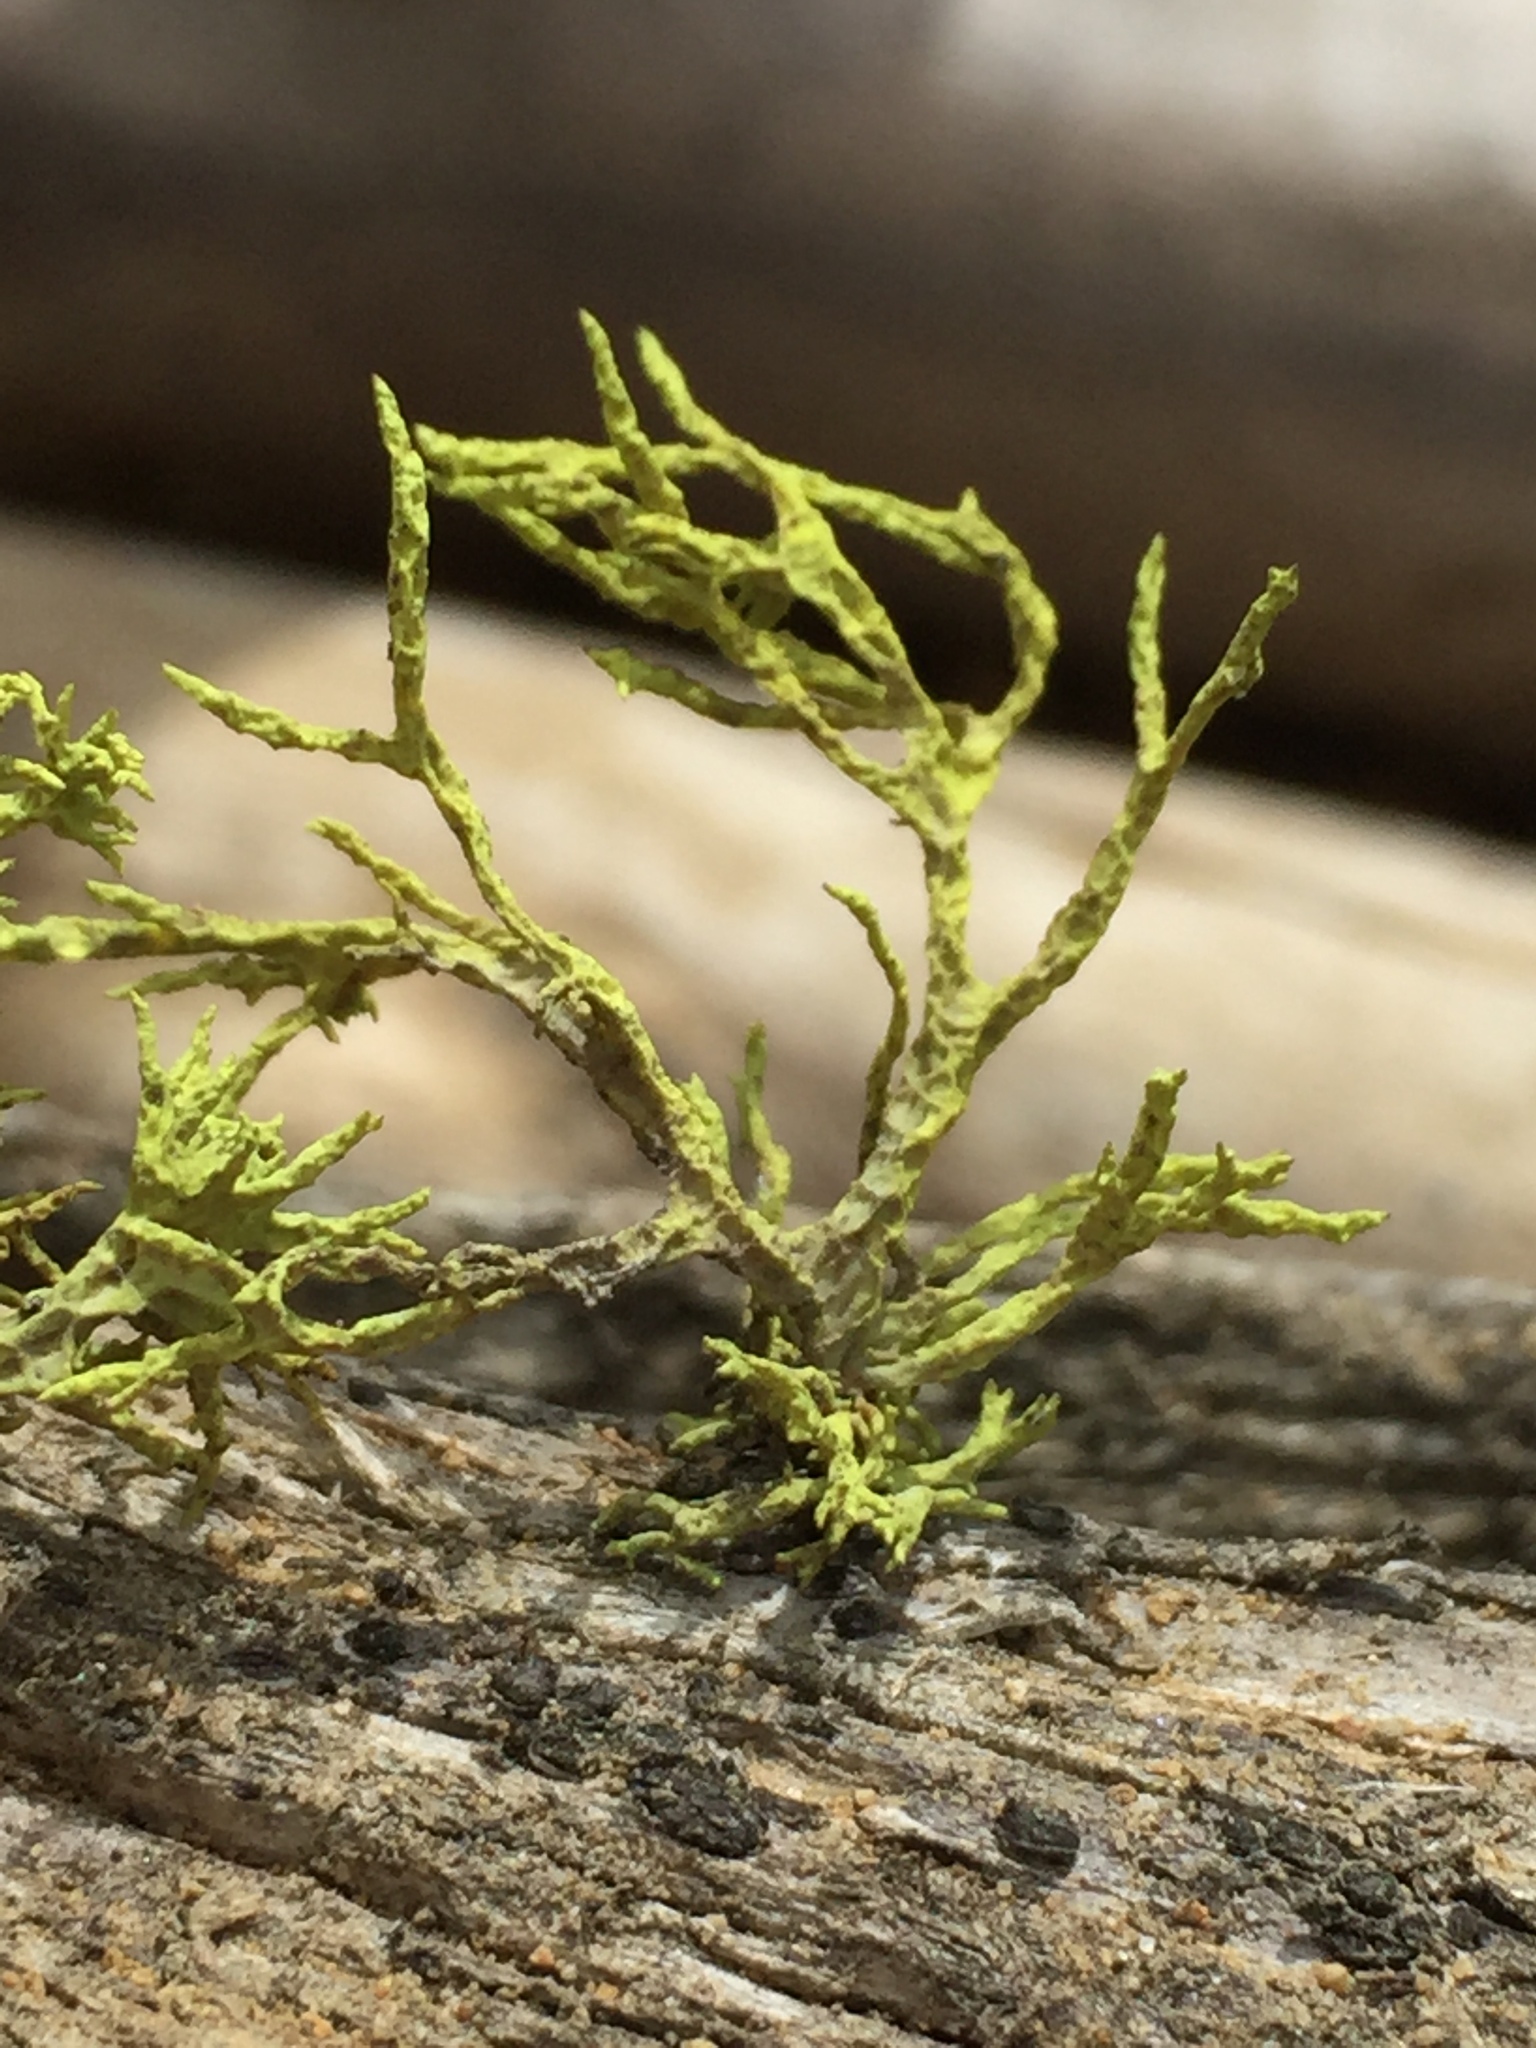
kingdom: Fungi
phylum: Ascomycota
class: Lecanoromycetes
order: Lecanorales
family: Parmeliaceae
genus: Letharia
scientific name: Letharia vulpina
